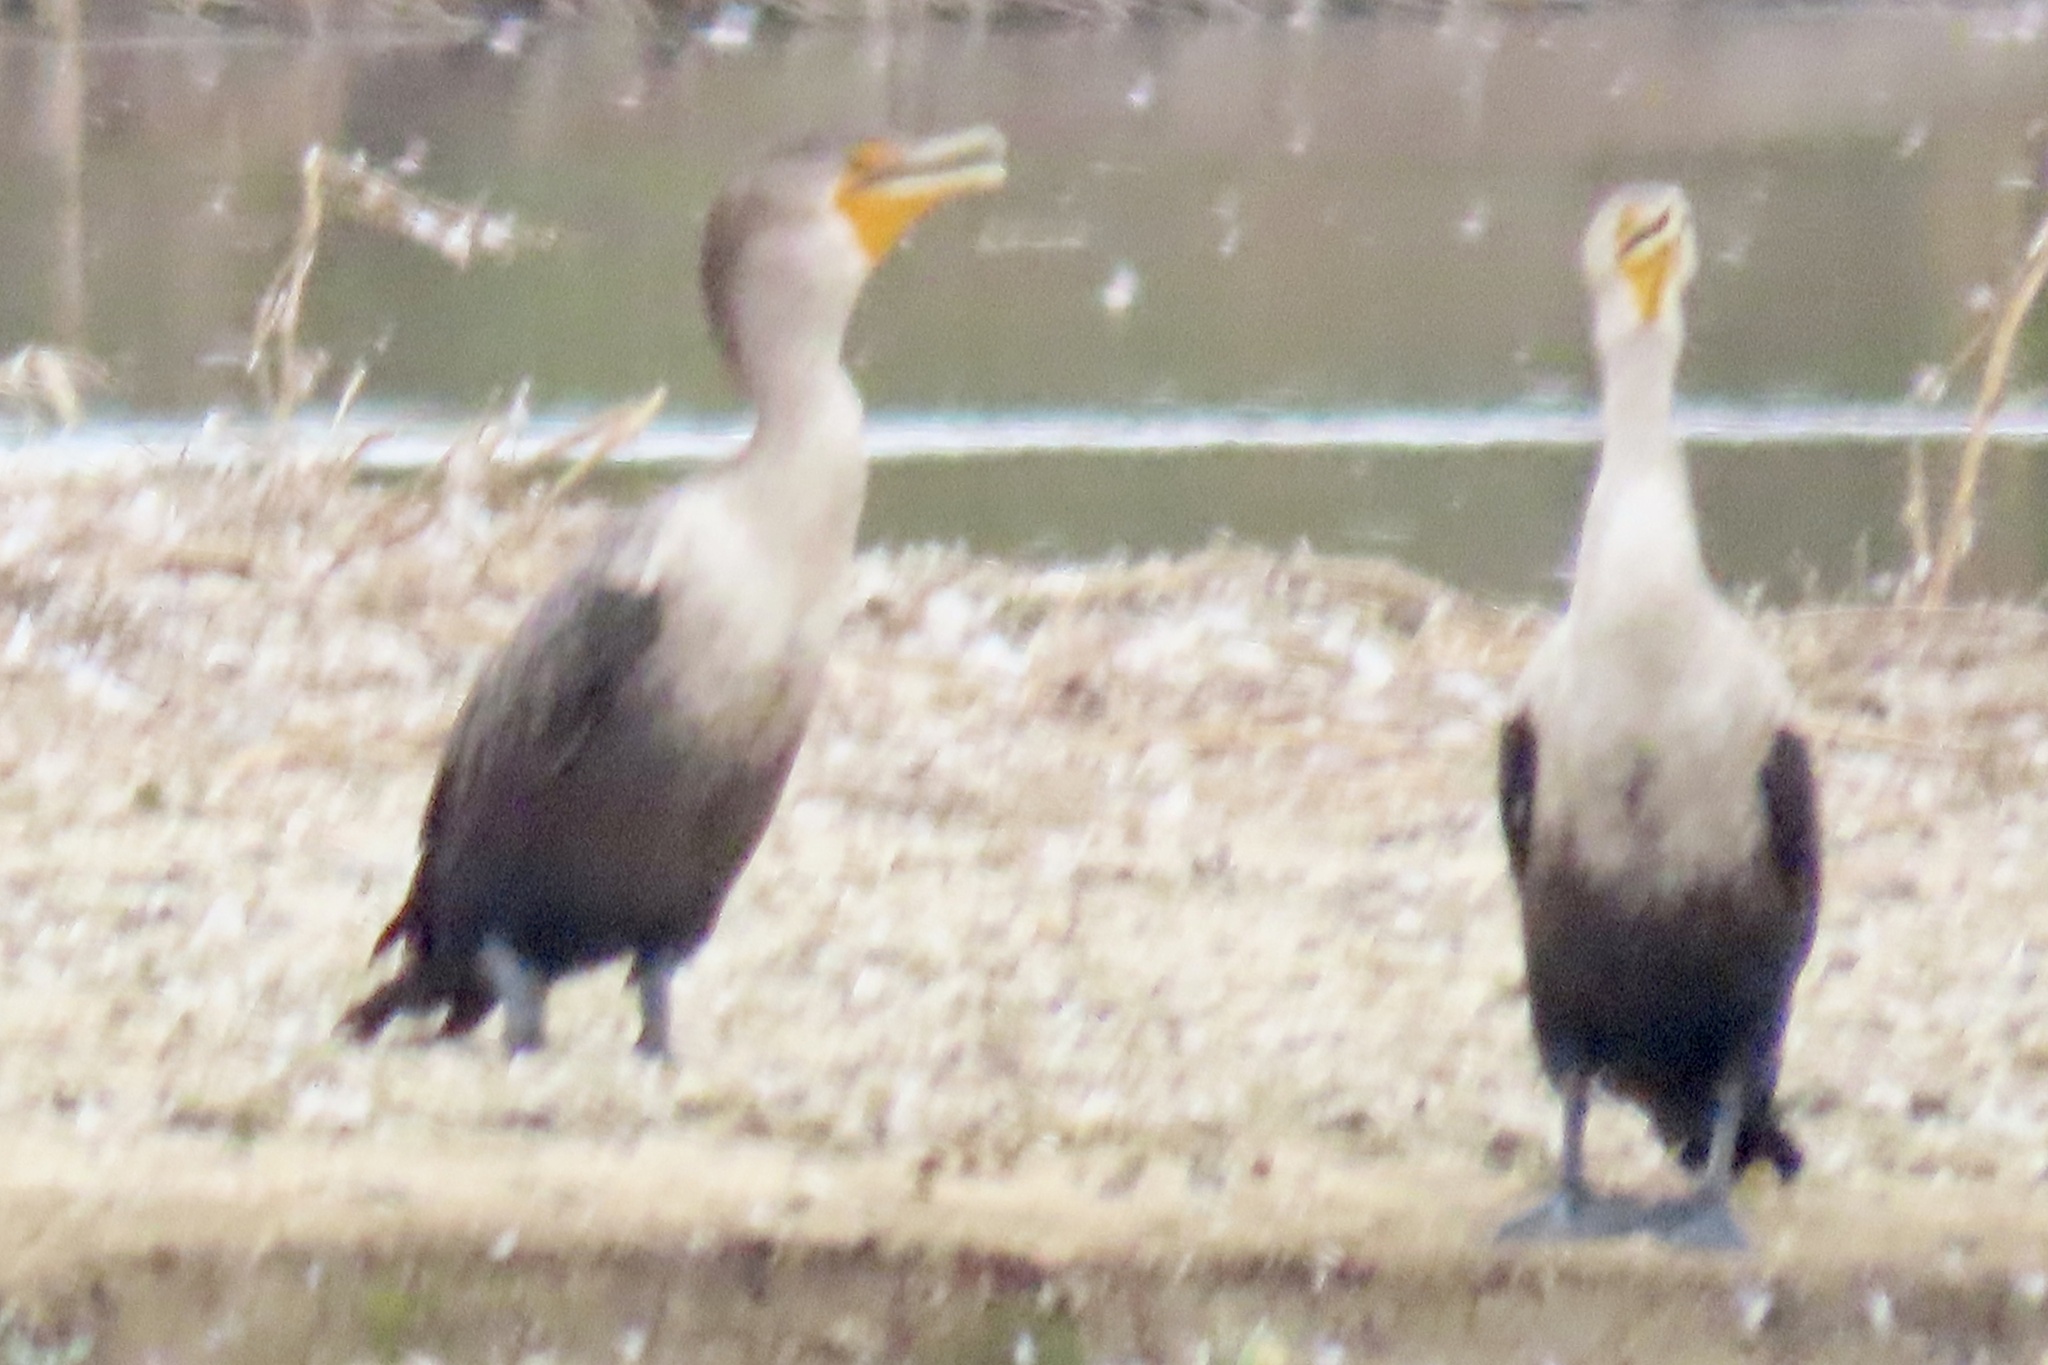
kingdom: Animalia
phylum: Chordata
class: Aves
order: Suliformes
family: Phalacrocoracidae
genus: Phalacrocorax
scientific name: Phalacrocorax auritus
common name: Double-crested cormorant
